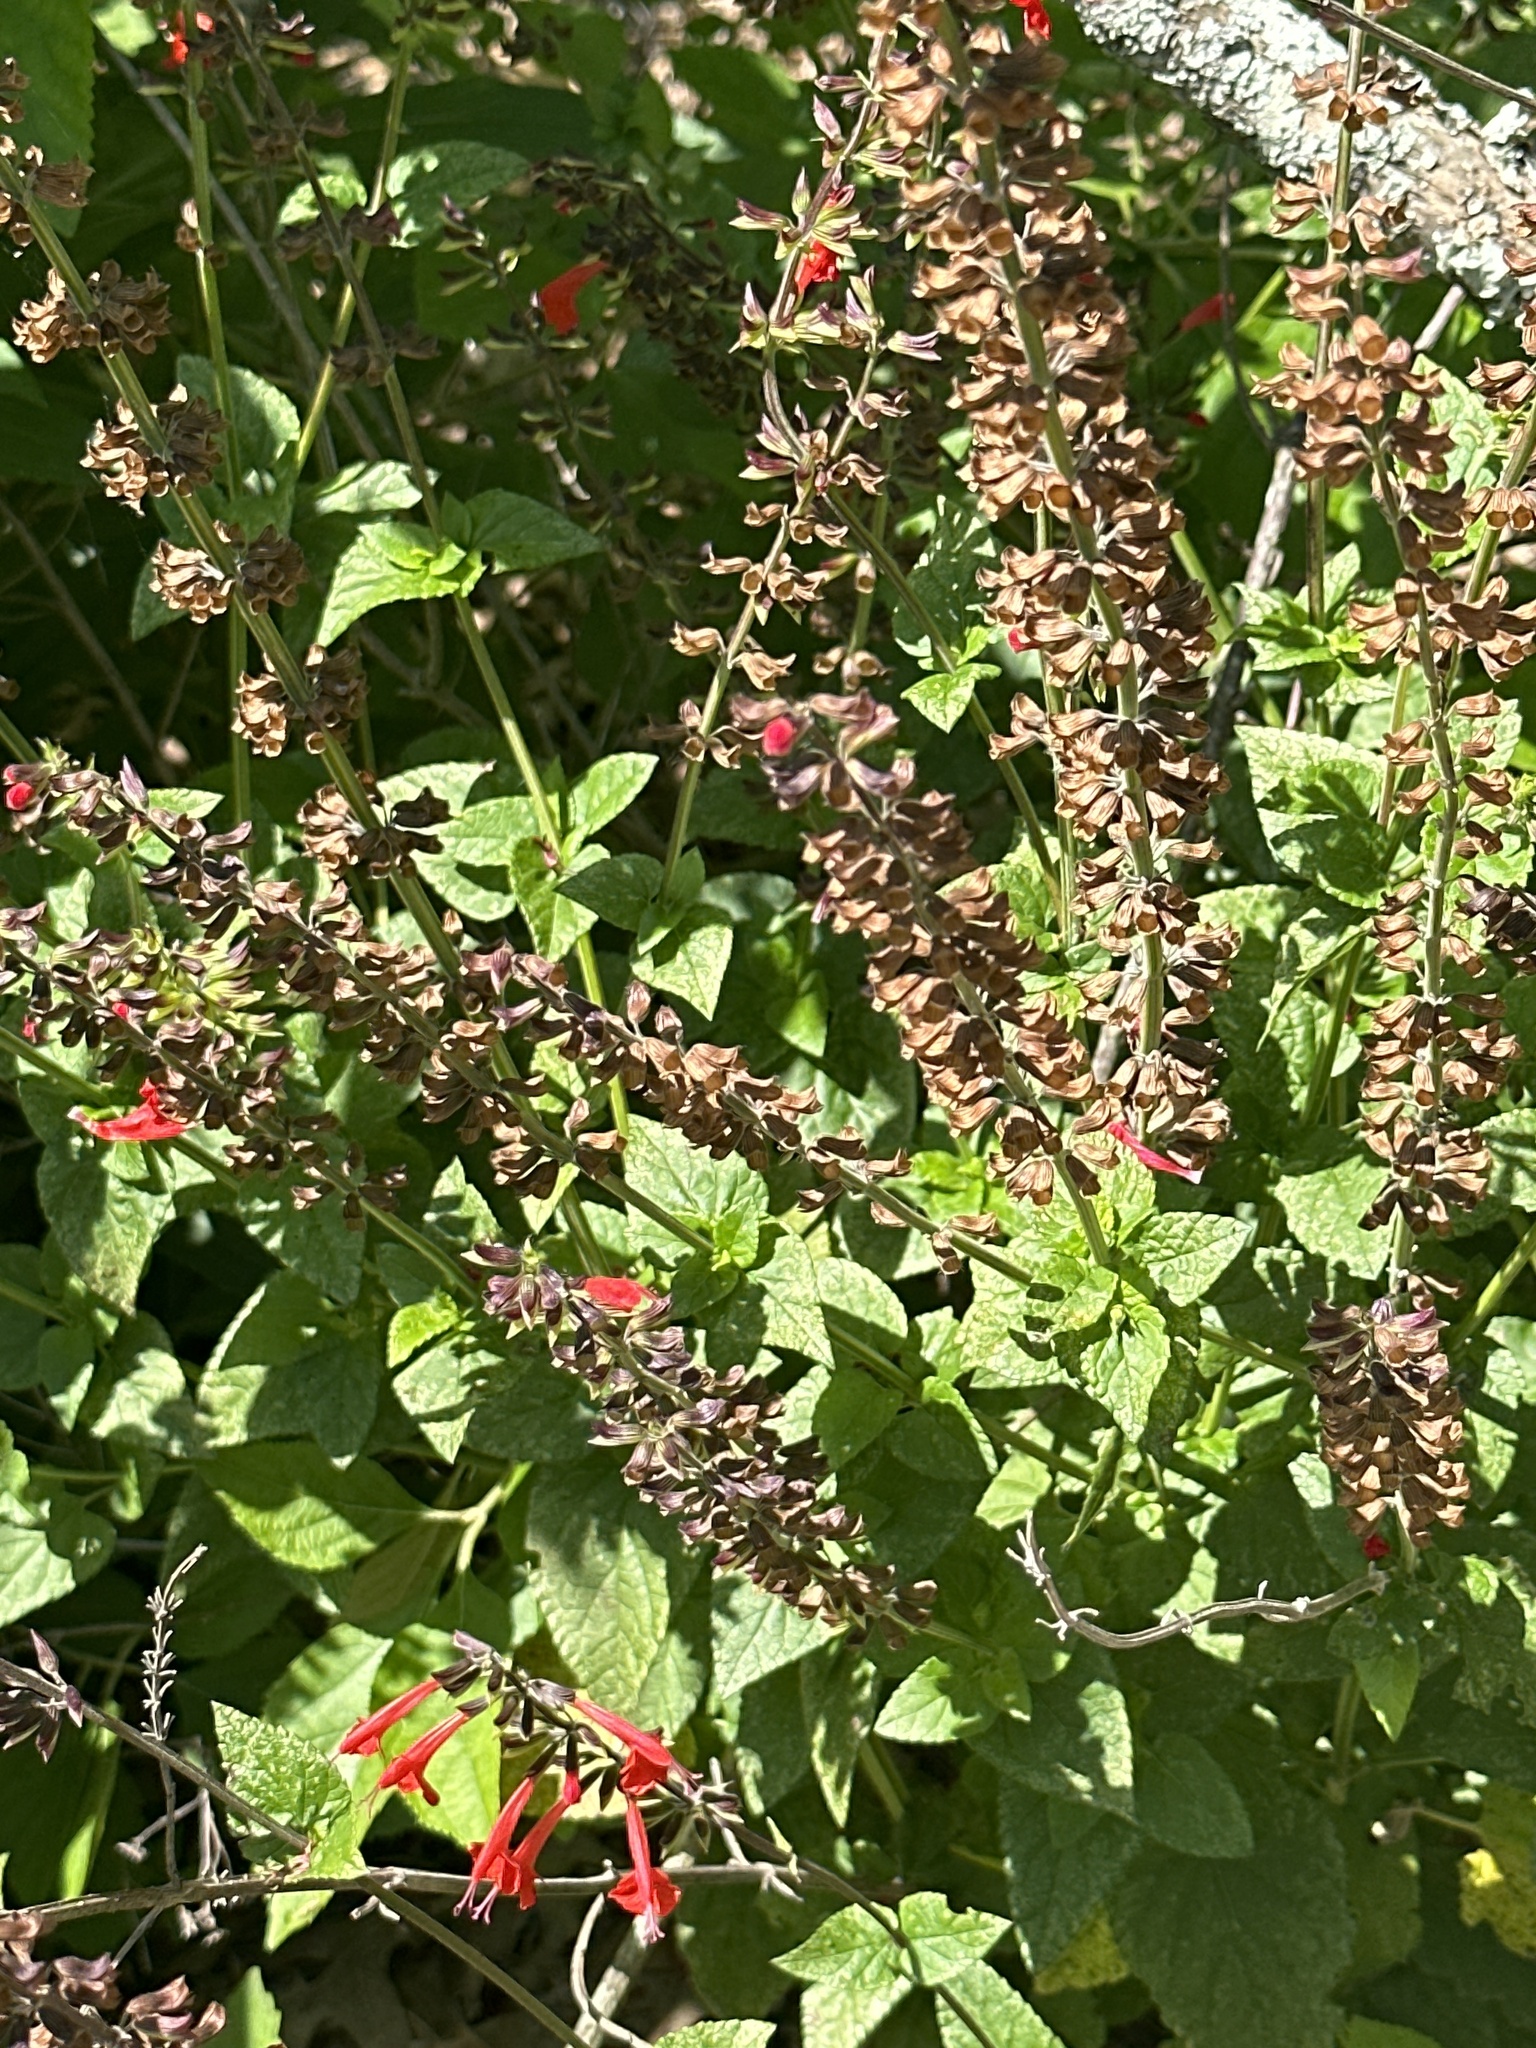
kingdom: Plantae
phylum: Tracheophyta
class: Magnoliopsida
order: Lamiales
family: Lamiaceae
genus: Salvia
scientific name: Salvia coccinea
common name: Blood sage
